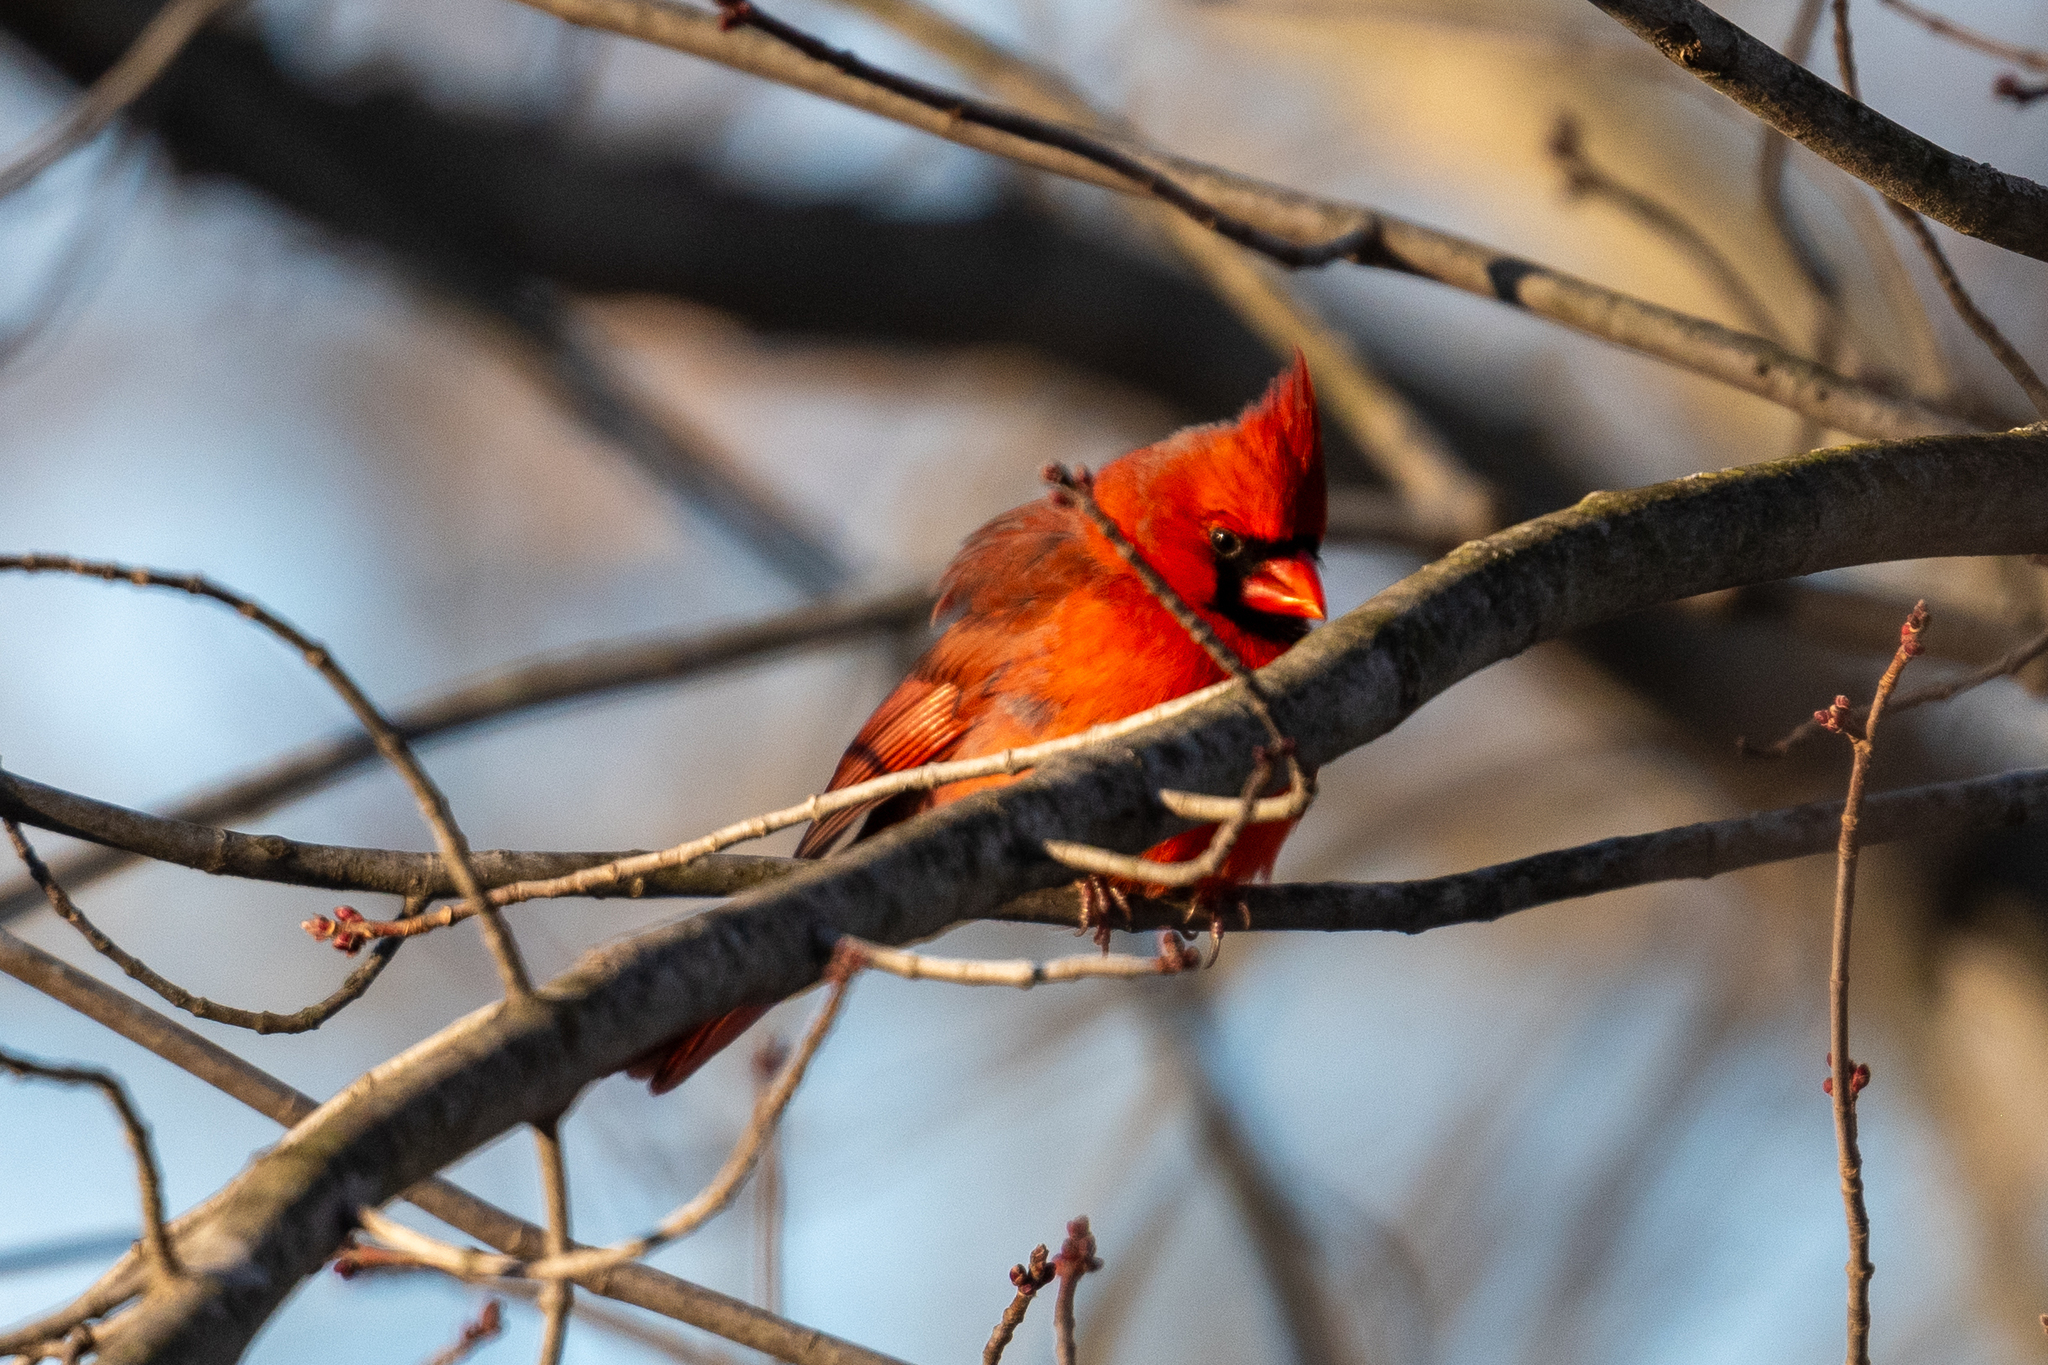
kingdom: Animalia
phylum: Chordata
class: Aves
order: Passeriformes
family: Cardinalidae
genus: Cardinalis
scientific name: Cardinalis cardinalis
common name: Northern cardinal
